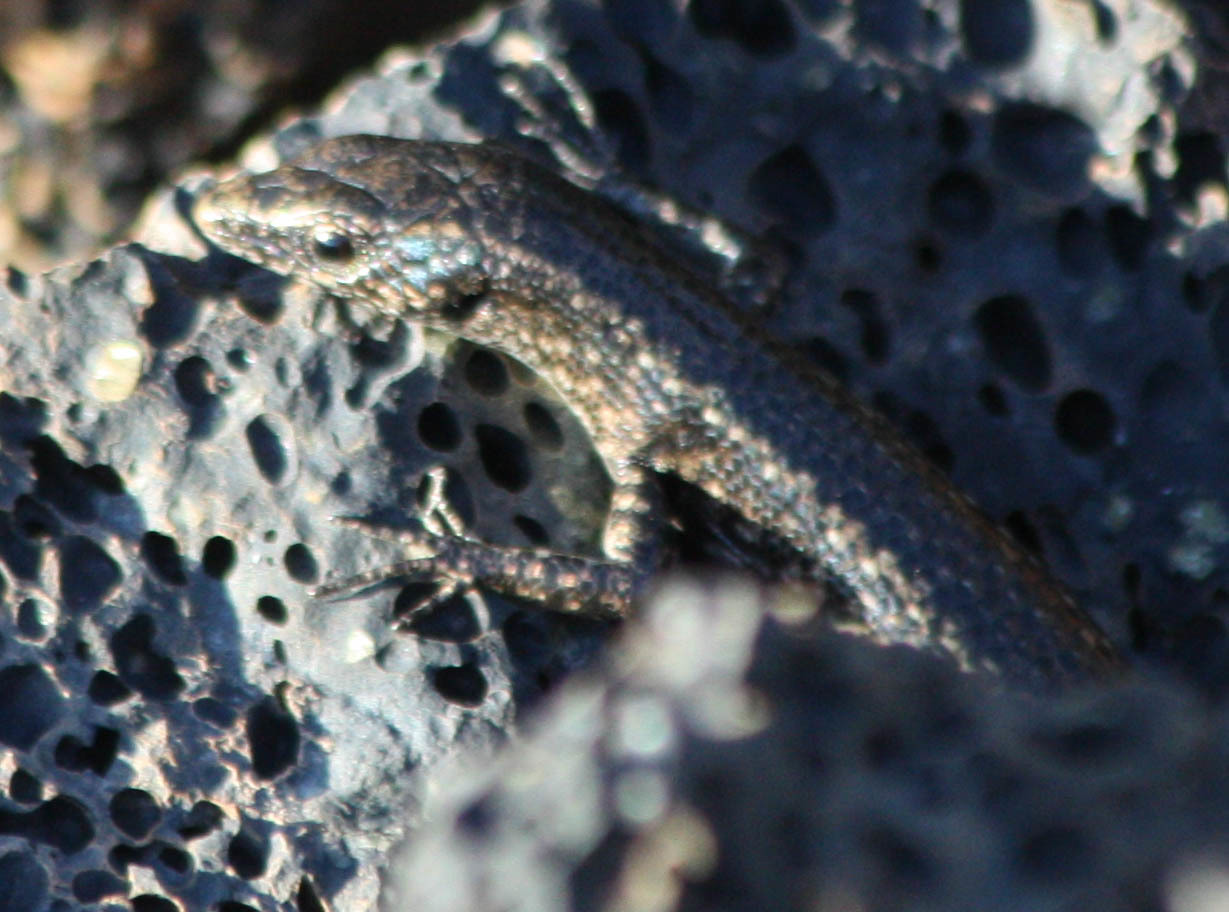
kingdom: Animalia
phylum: Chordata
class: Squamata
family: Scincidae
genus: Cryptoblepharus
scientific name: Cryptoblepharus poecilopleurus
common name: Mottled snake-eyed skink
